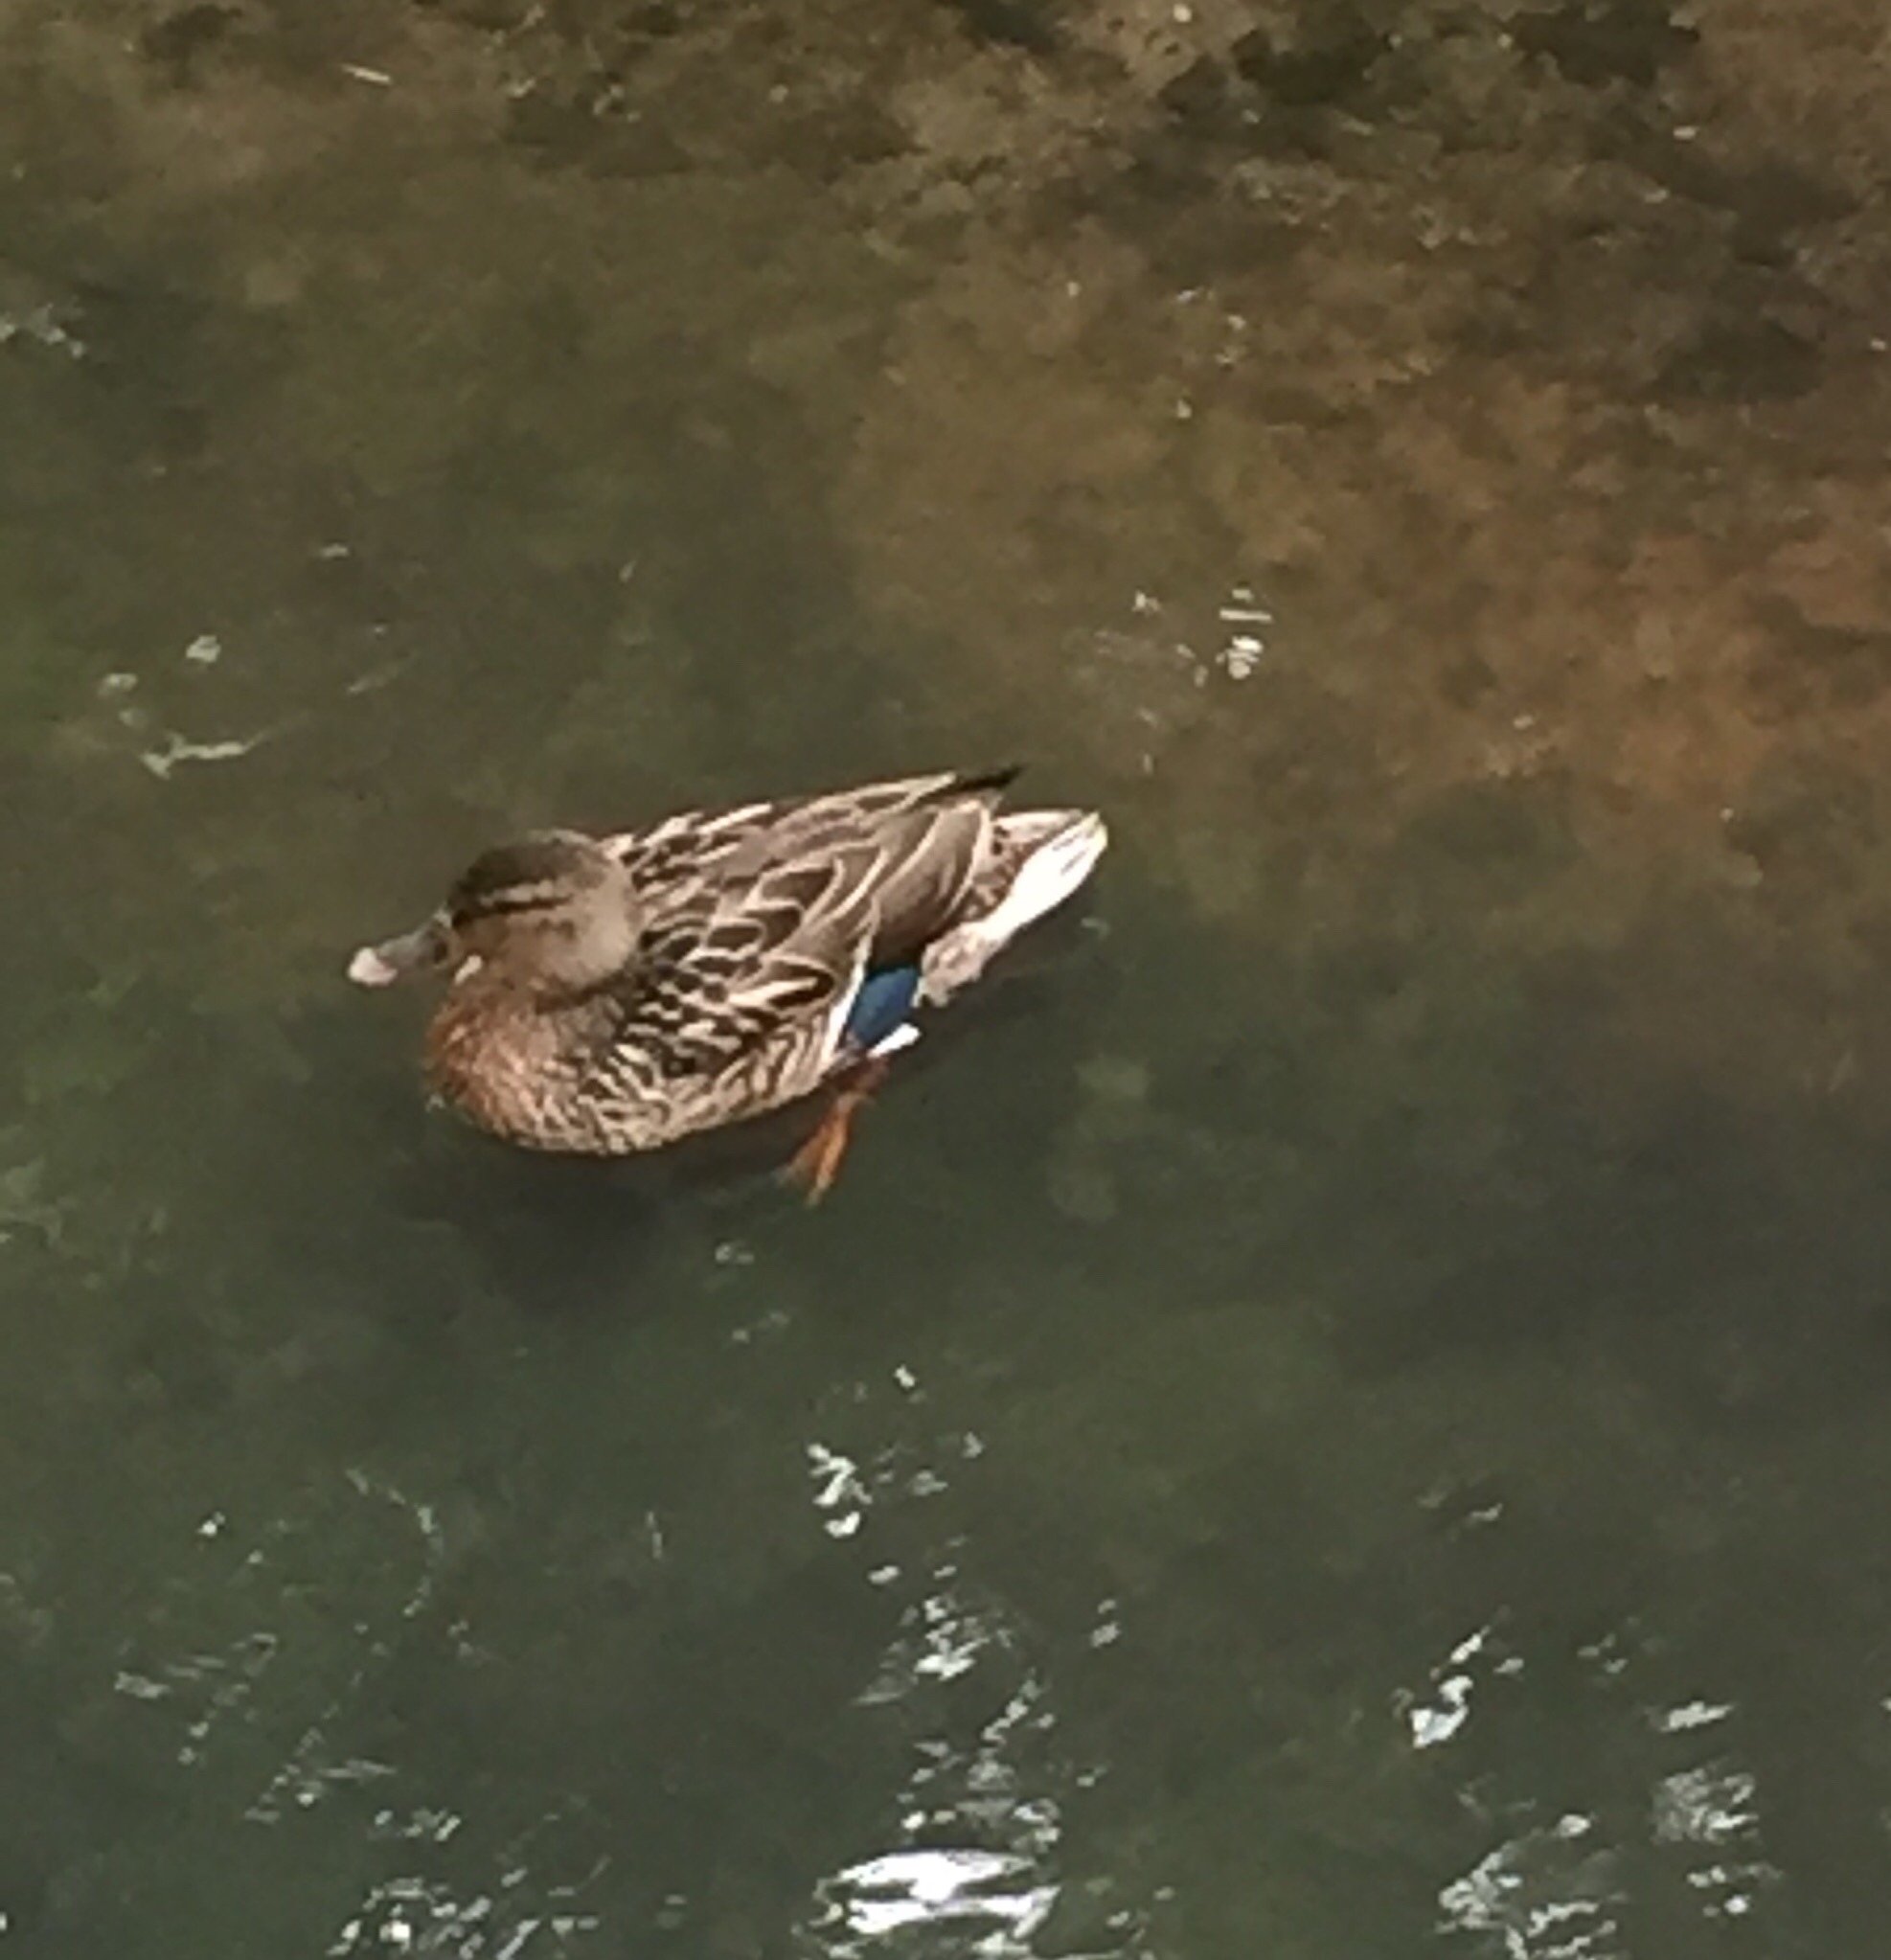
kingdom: Animalia
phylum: Chordata
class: Aves
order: Anseriformes
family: Anatidae
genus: Anas
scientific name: Anas platyrhynchos
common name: Mallard
